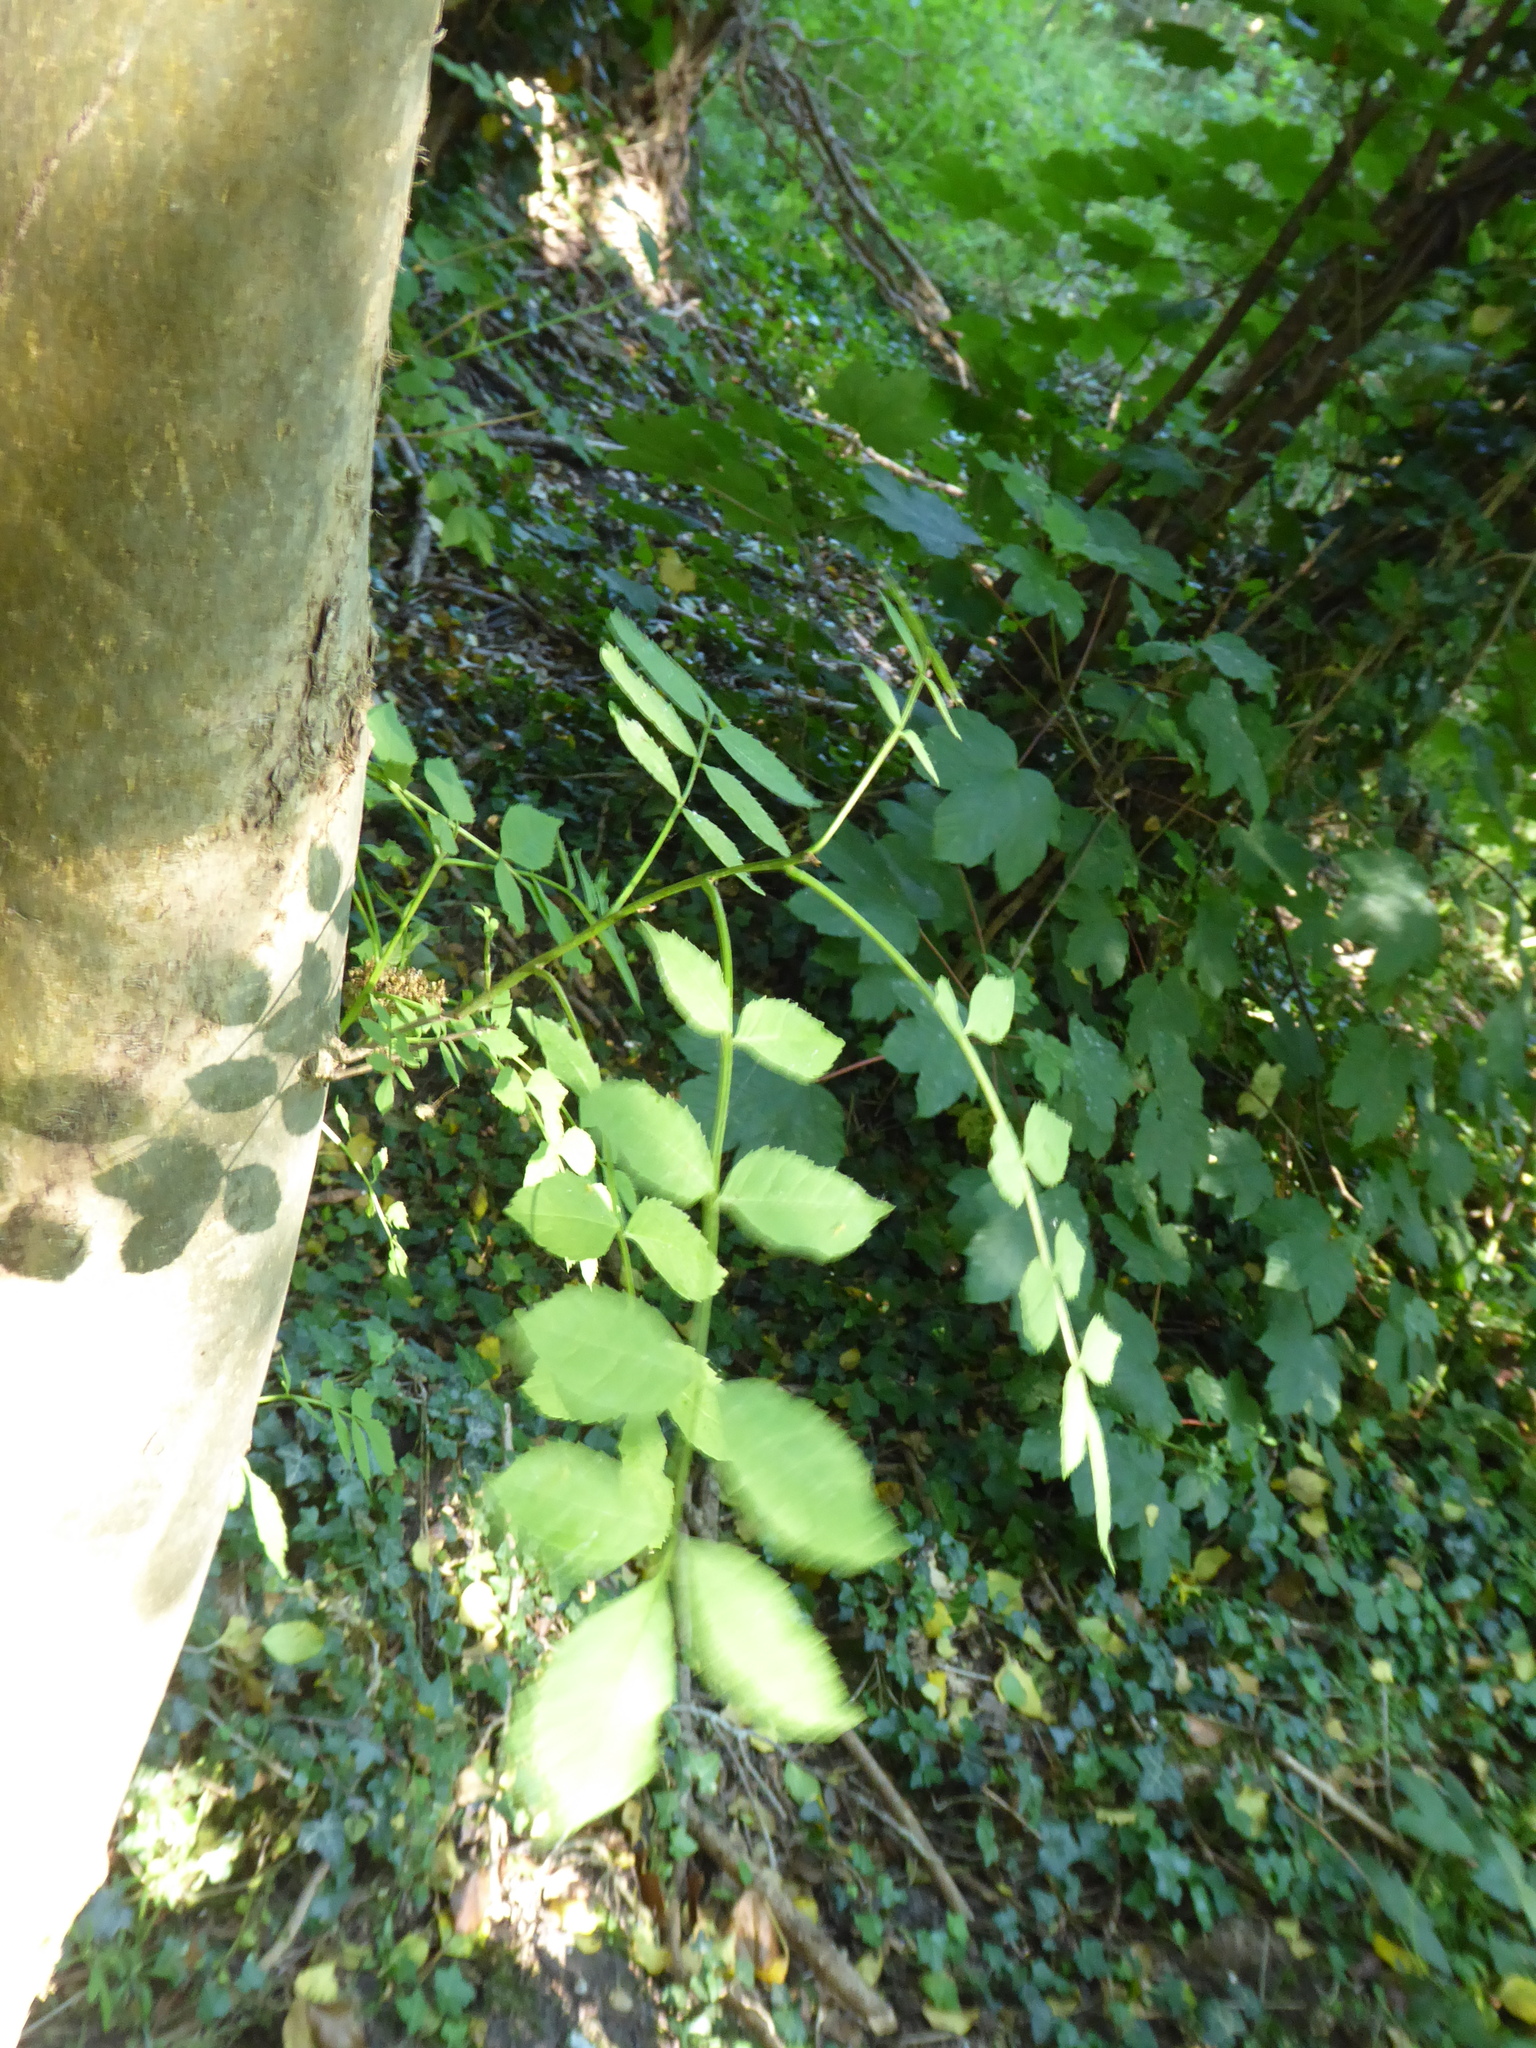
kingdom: Plantae
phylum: Tracheophyta
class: Magnoliopsida
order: Lamiales
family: Oleaceae
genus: Fraxinus
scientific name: Fraxinus excelsior
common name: European ash
